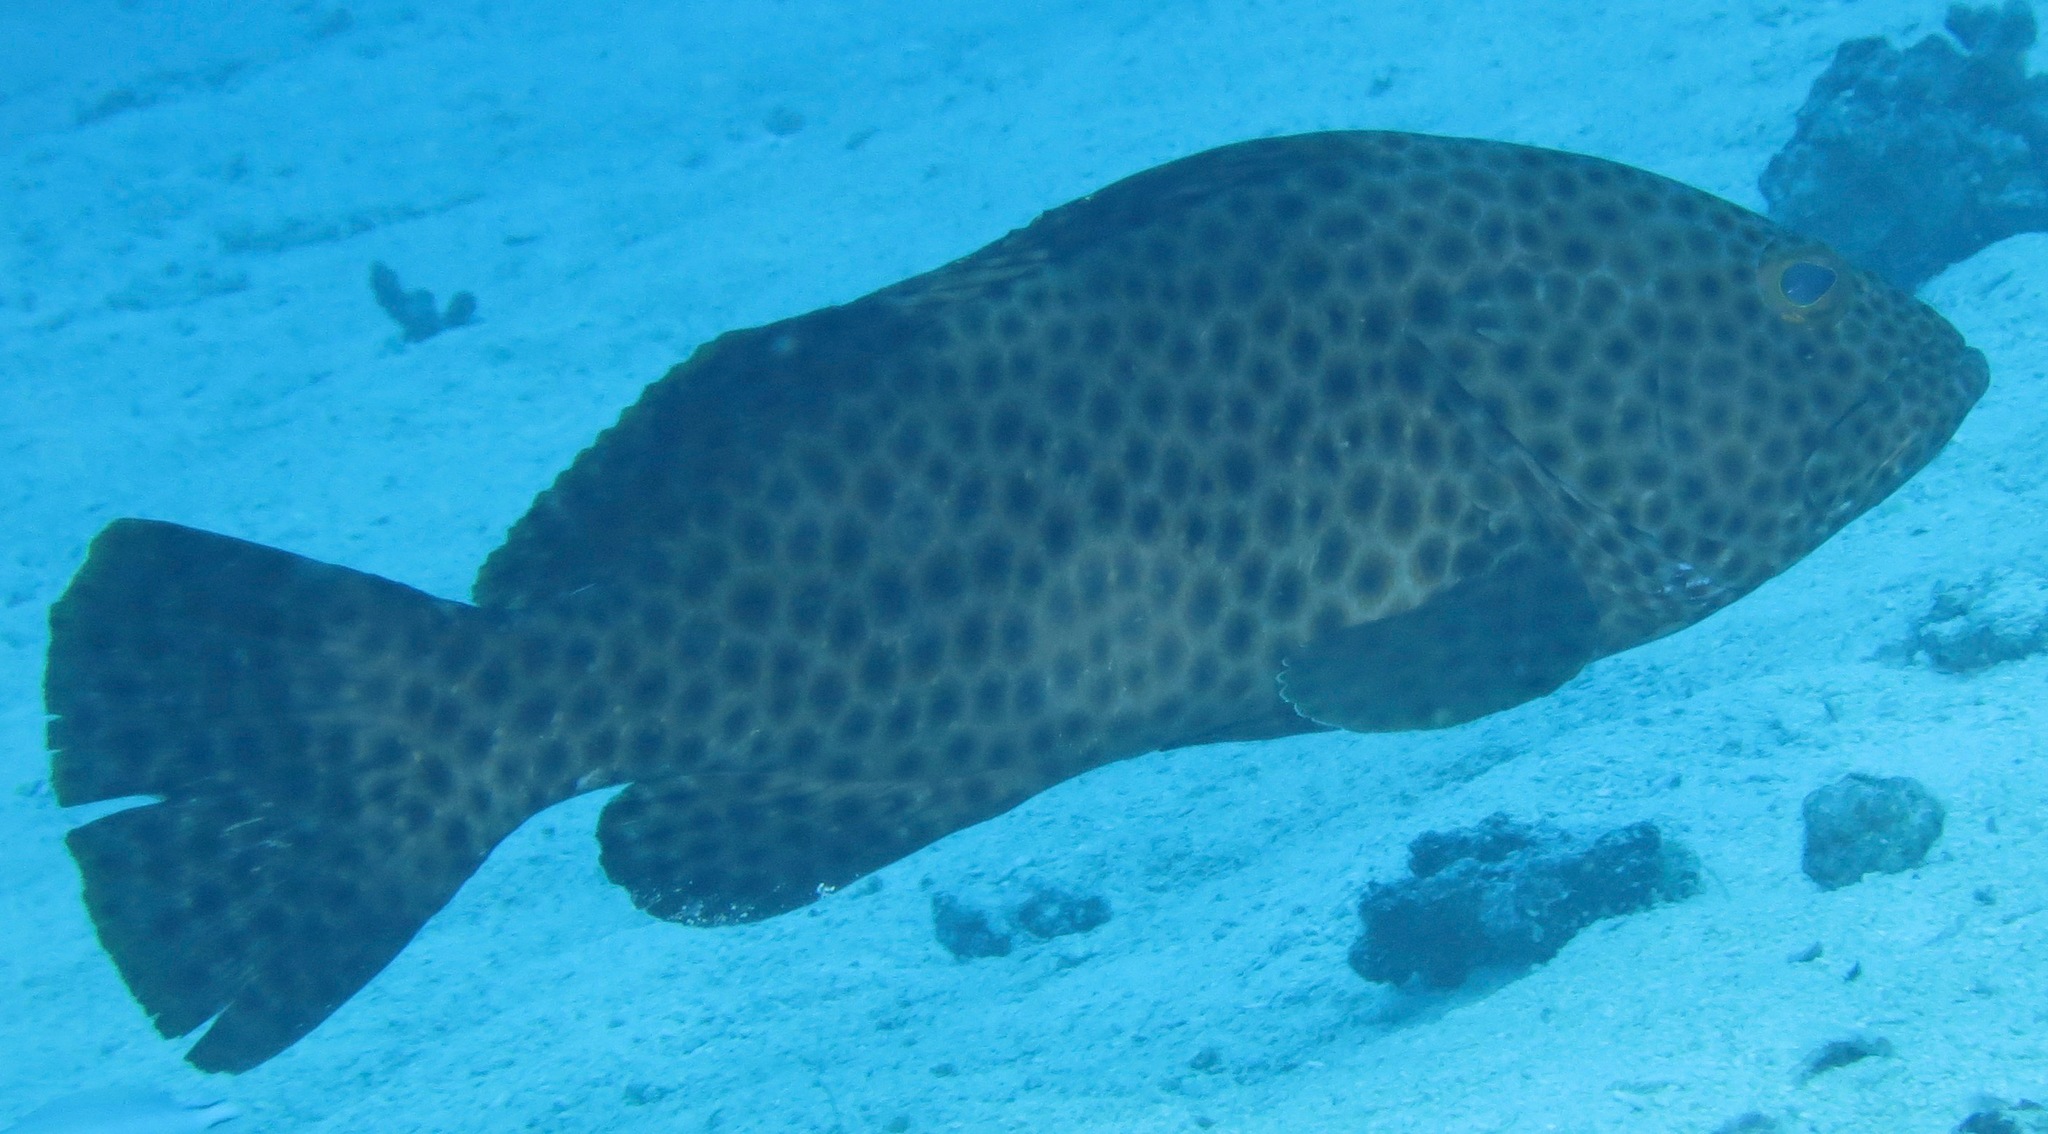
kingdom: Animalia
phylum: Chordata
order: Perciformes
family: Serranidae
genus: Epinephelus
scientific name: Epinephelus maculatus
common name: Highfin grouper
